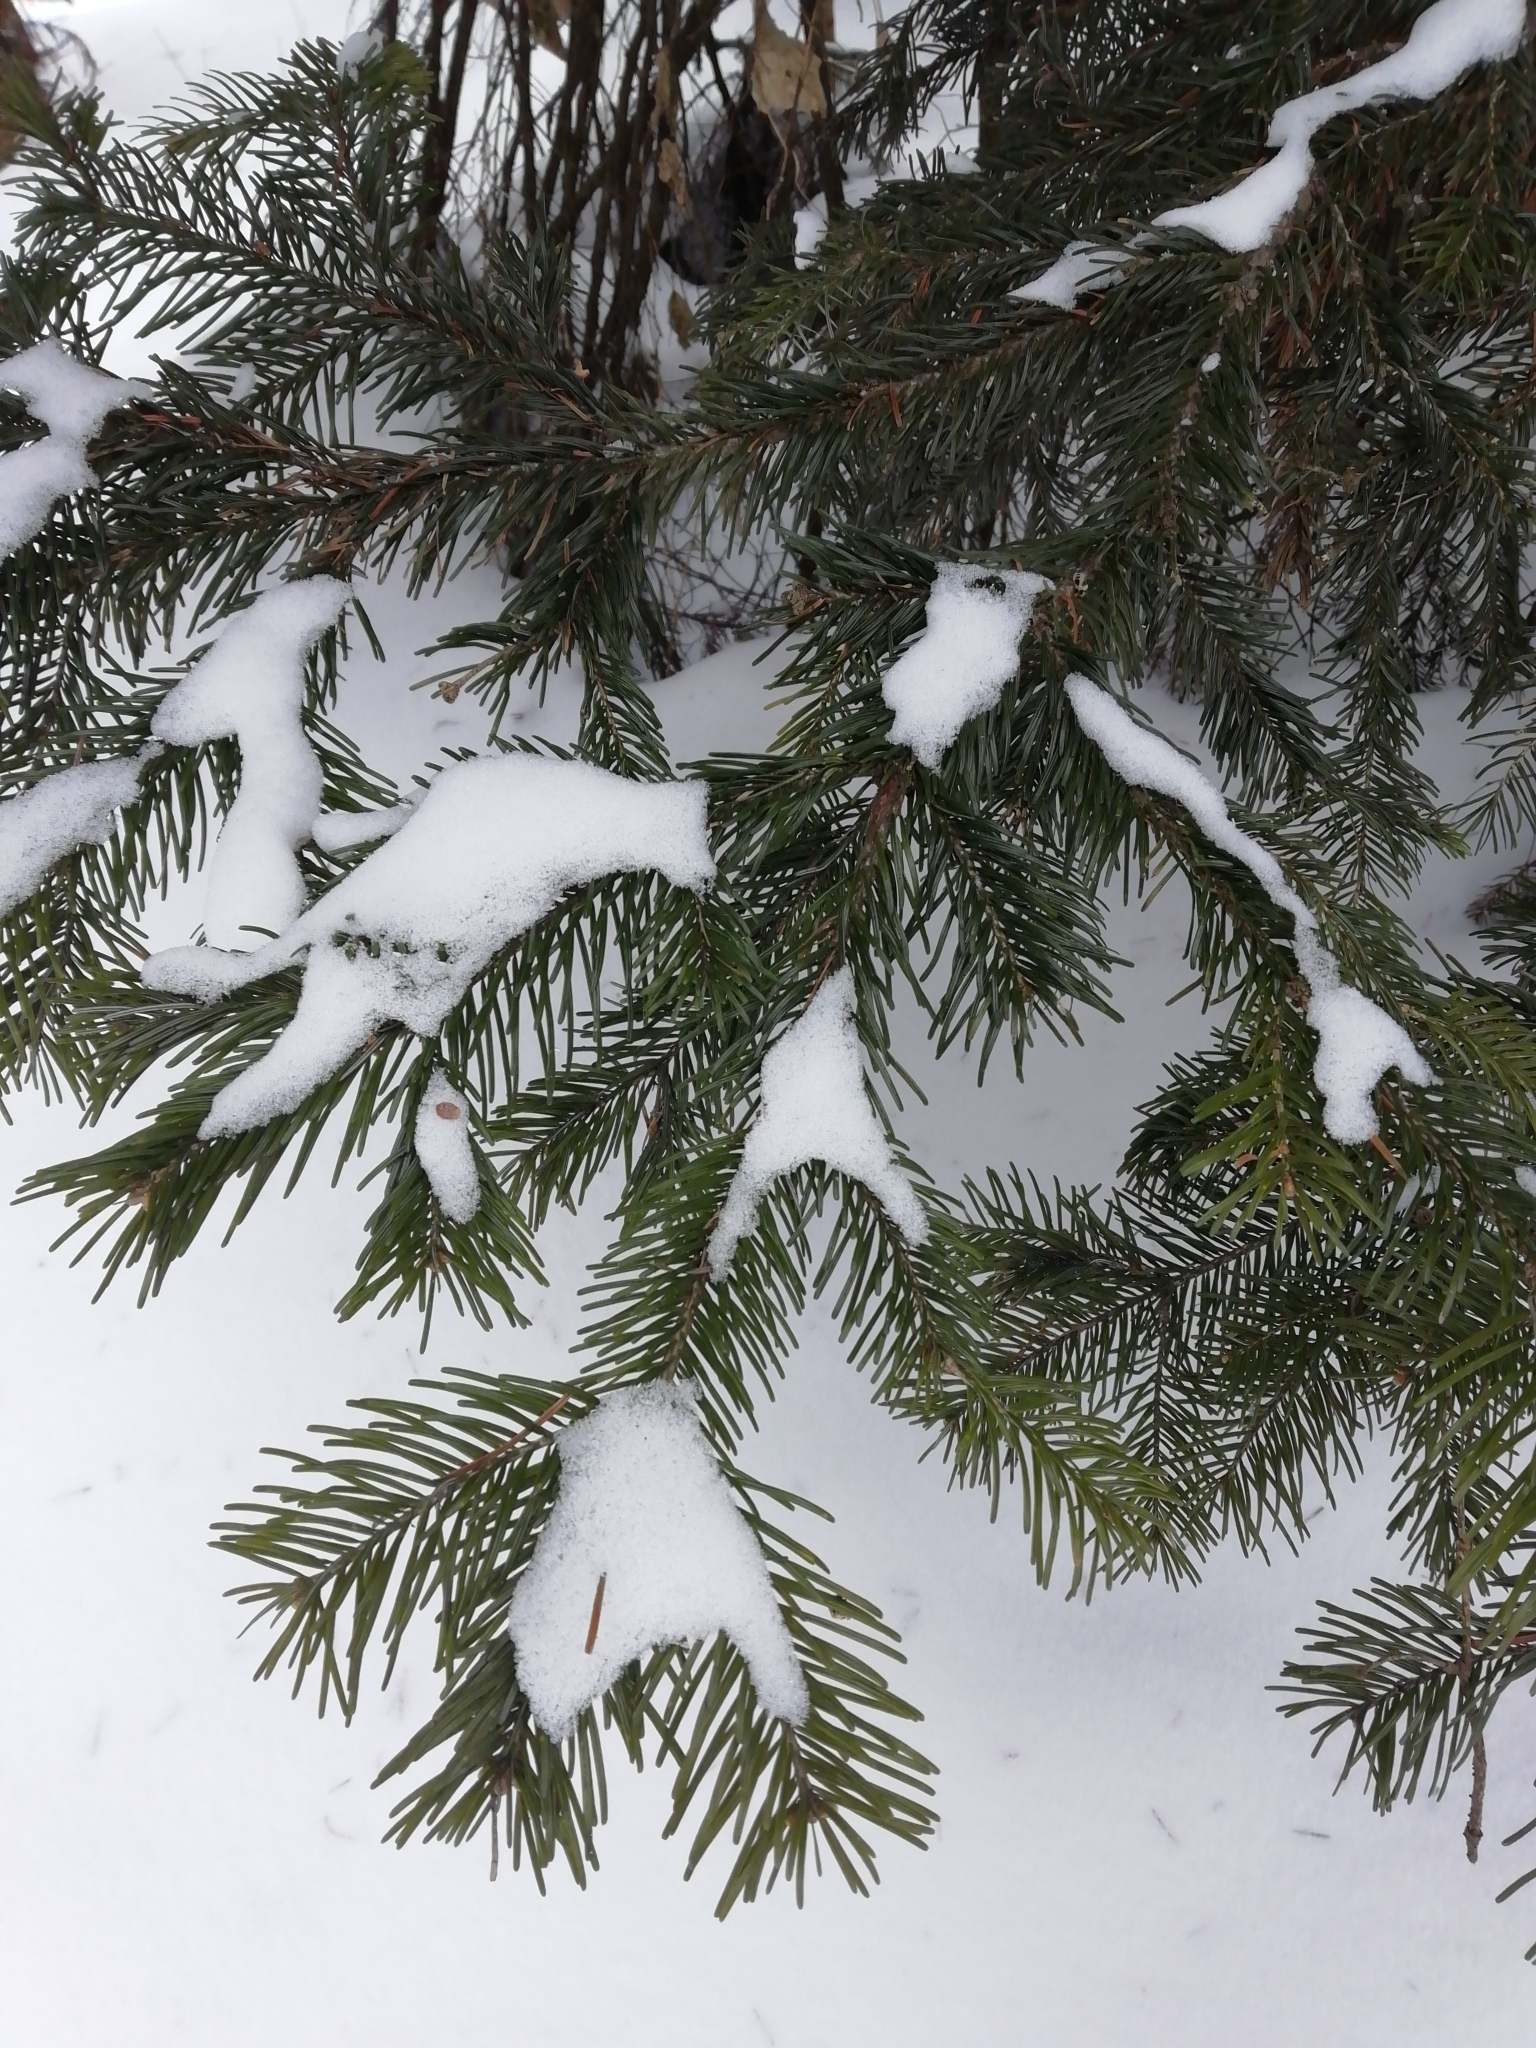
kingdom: Plantae
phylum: Tracheophyta
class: Pinopsida
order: Pinales
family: Pinaceae
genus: Abies
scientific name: Abies sibirica
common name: Siberian fir
